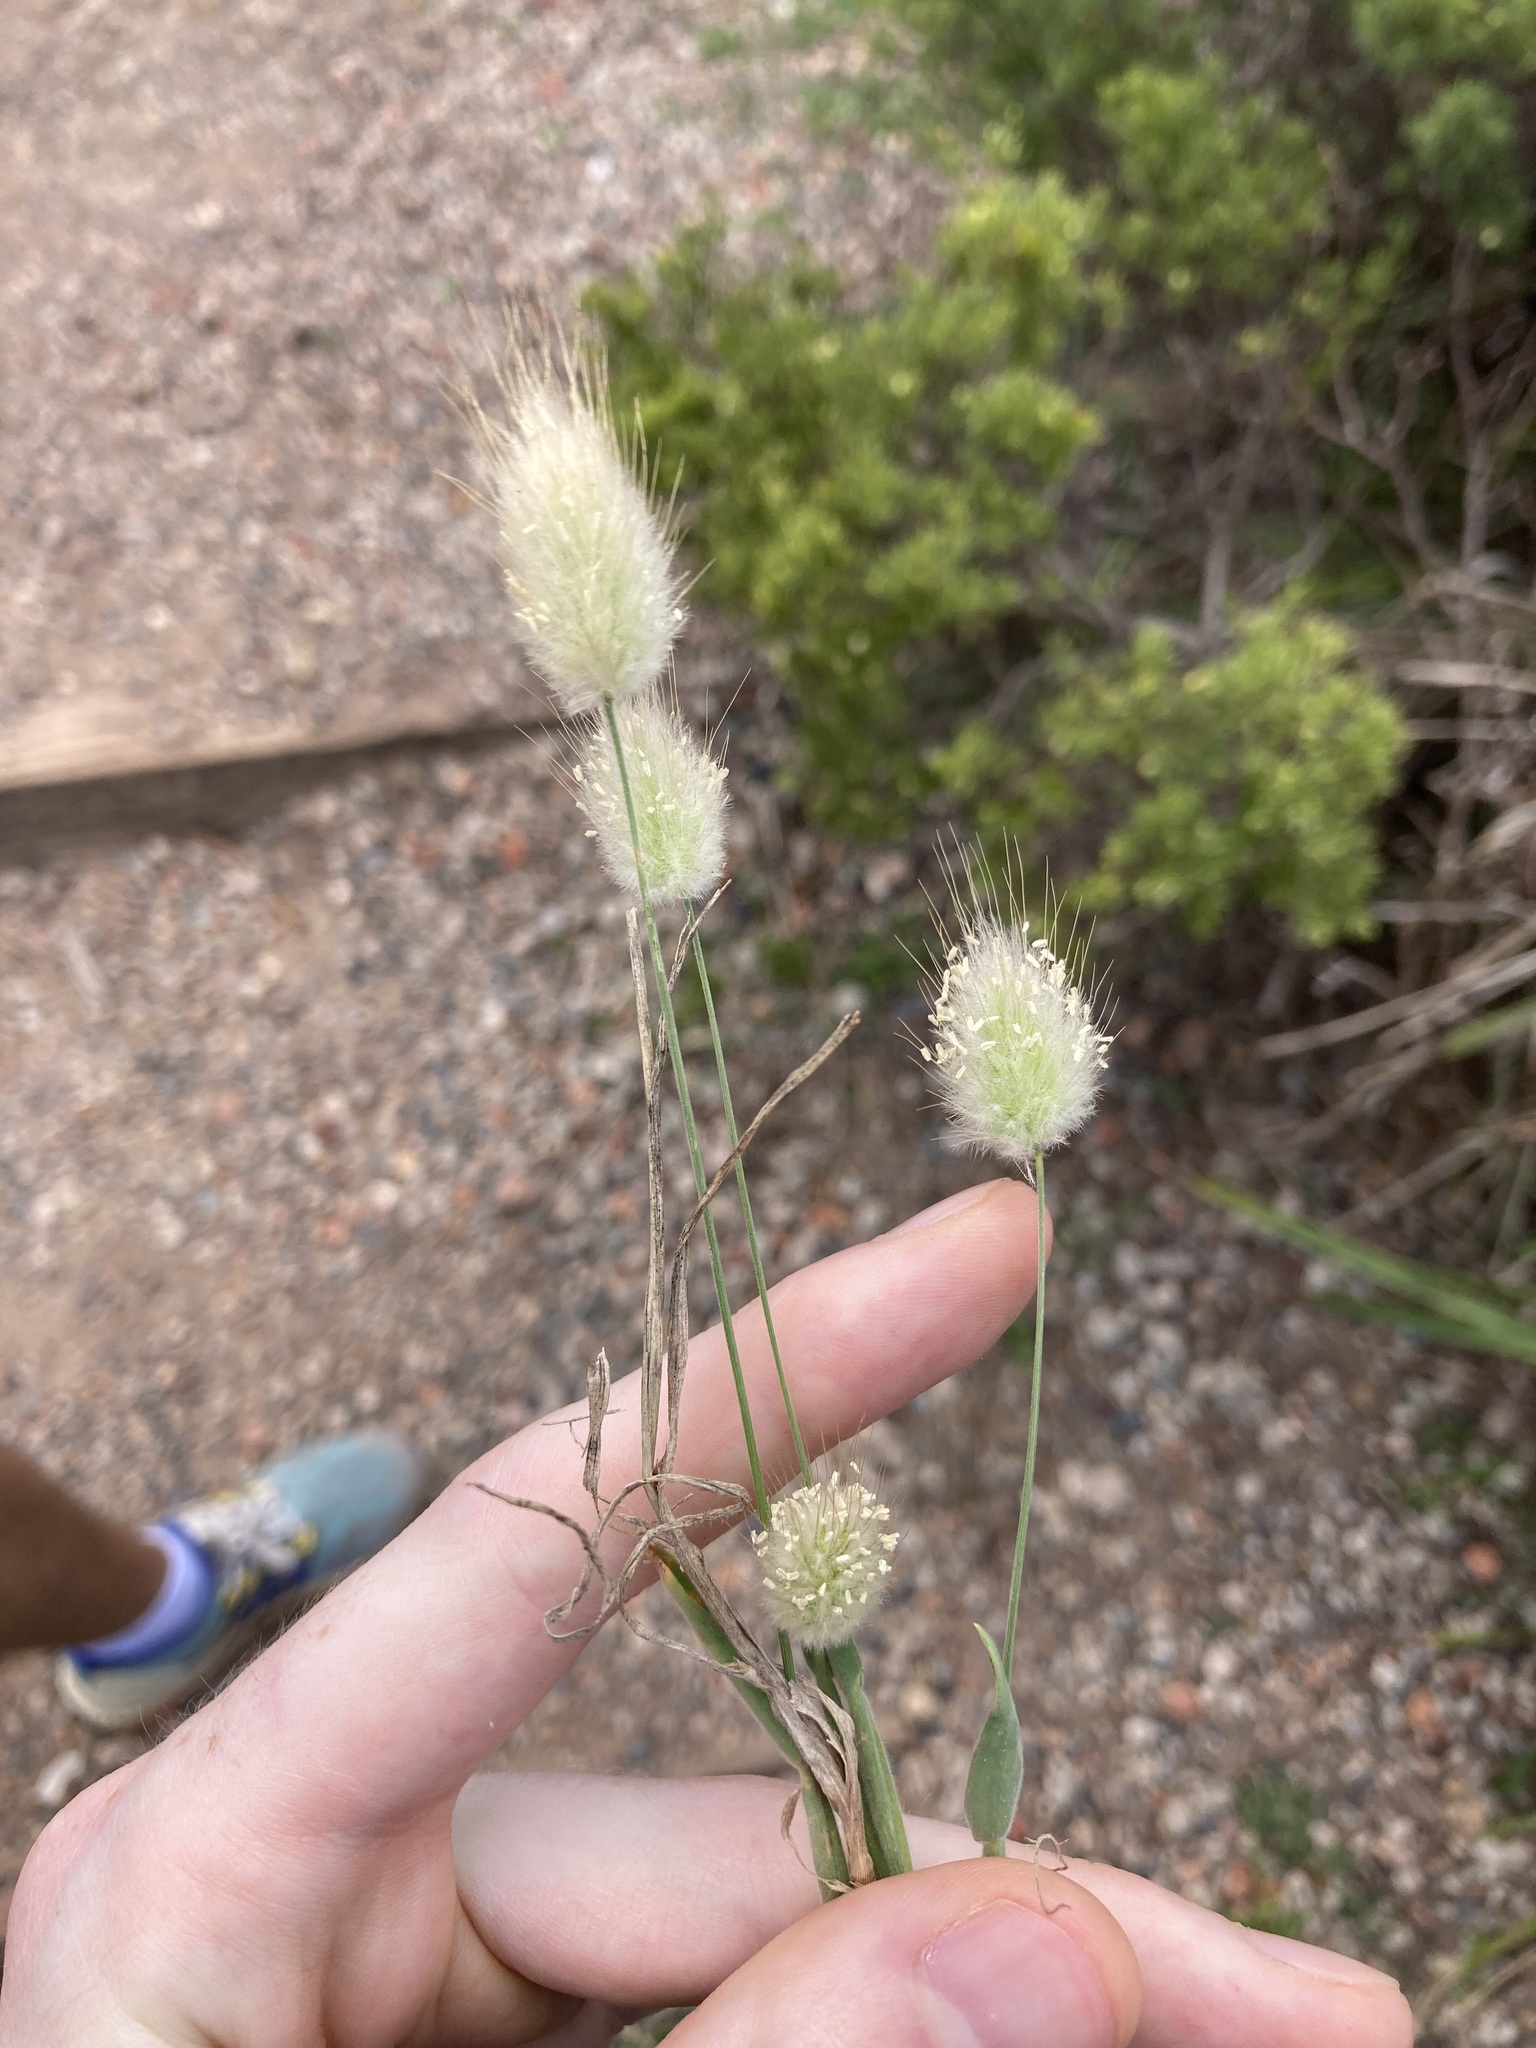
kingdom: Plantae
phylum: Tracheophyta
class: Liliopsida
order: Poales
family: Poaceae
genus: Lagurus
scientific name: Lagurus ovatus
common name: Hare's-tail
